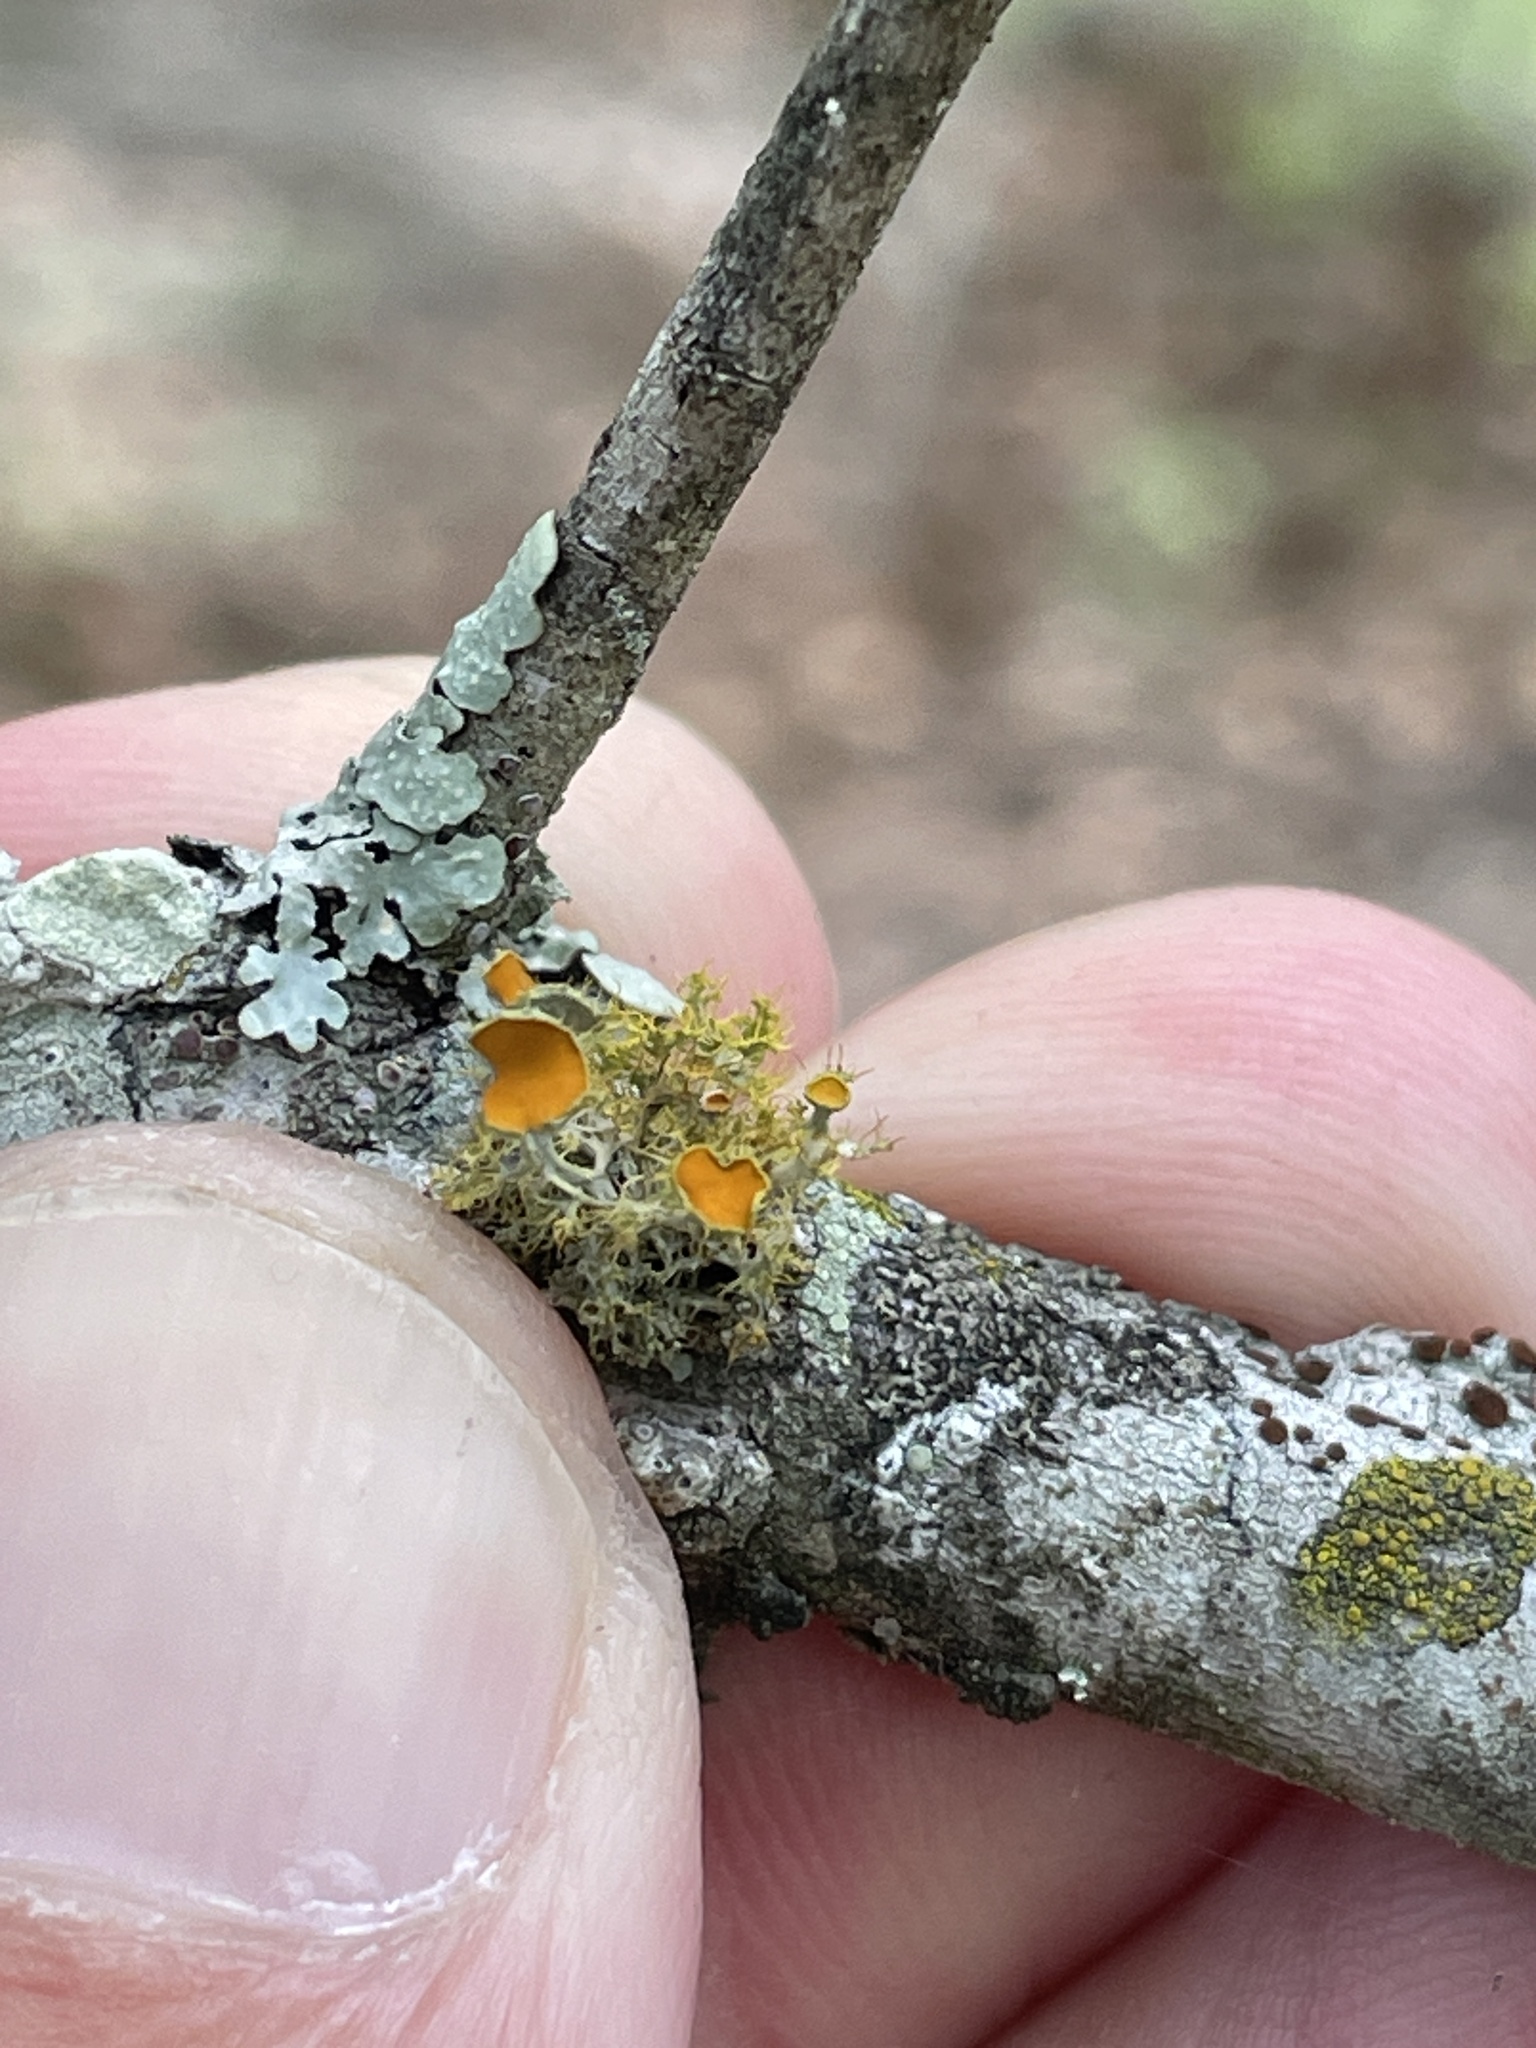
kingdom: Fungi
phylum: Ascomycota
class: Lecanoromycetes
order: Teloschistales
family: Teloschistaceae
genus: Niorma
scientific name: Niorma chrysophthalma
